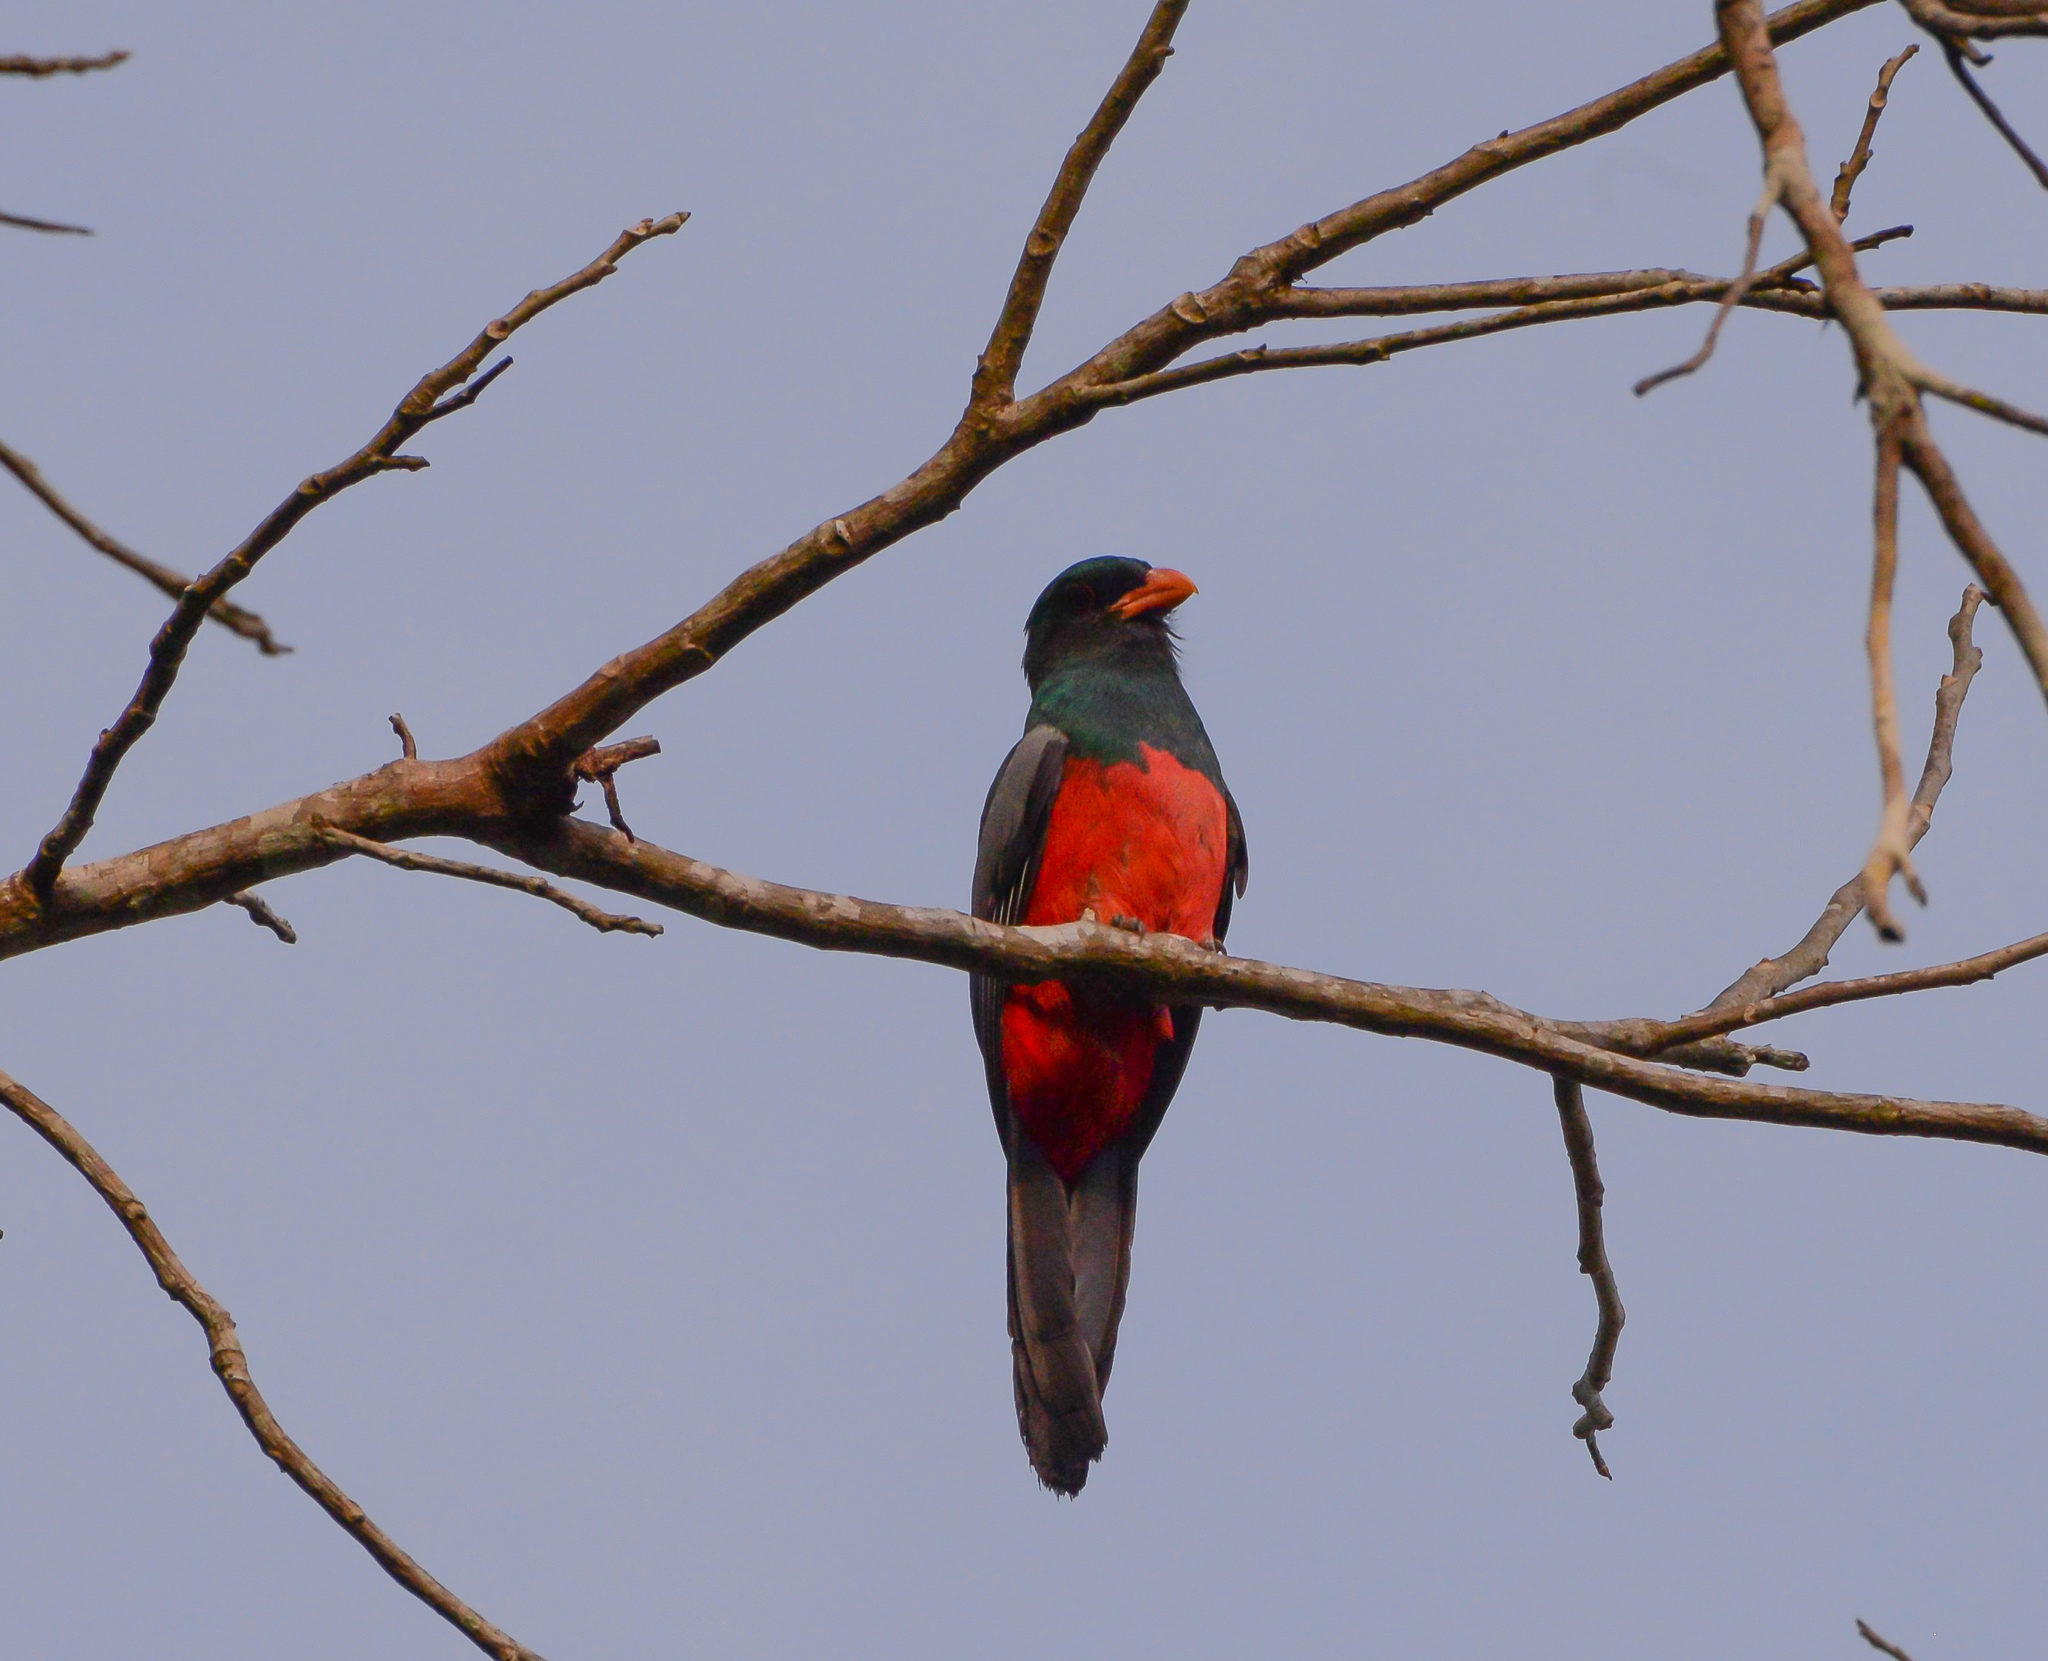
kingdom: Animalia
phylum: Chordata
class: Aves
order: Trogoniformes
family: Trogonidae
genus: Trogon
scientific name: Trogon massena
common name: Slaty-tailed trogon
